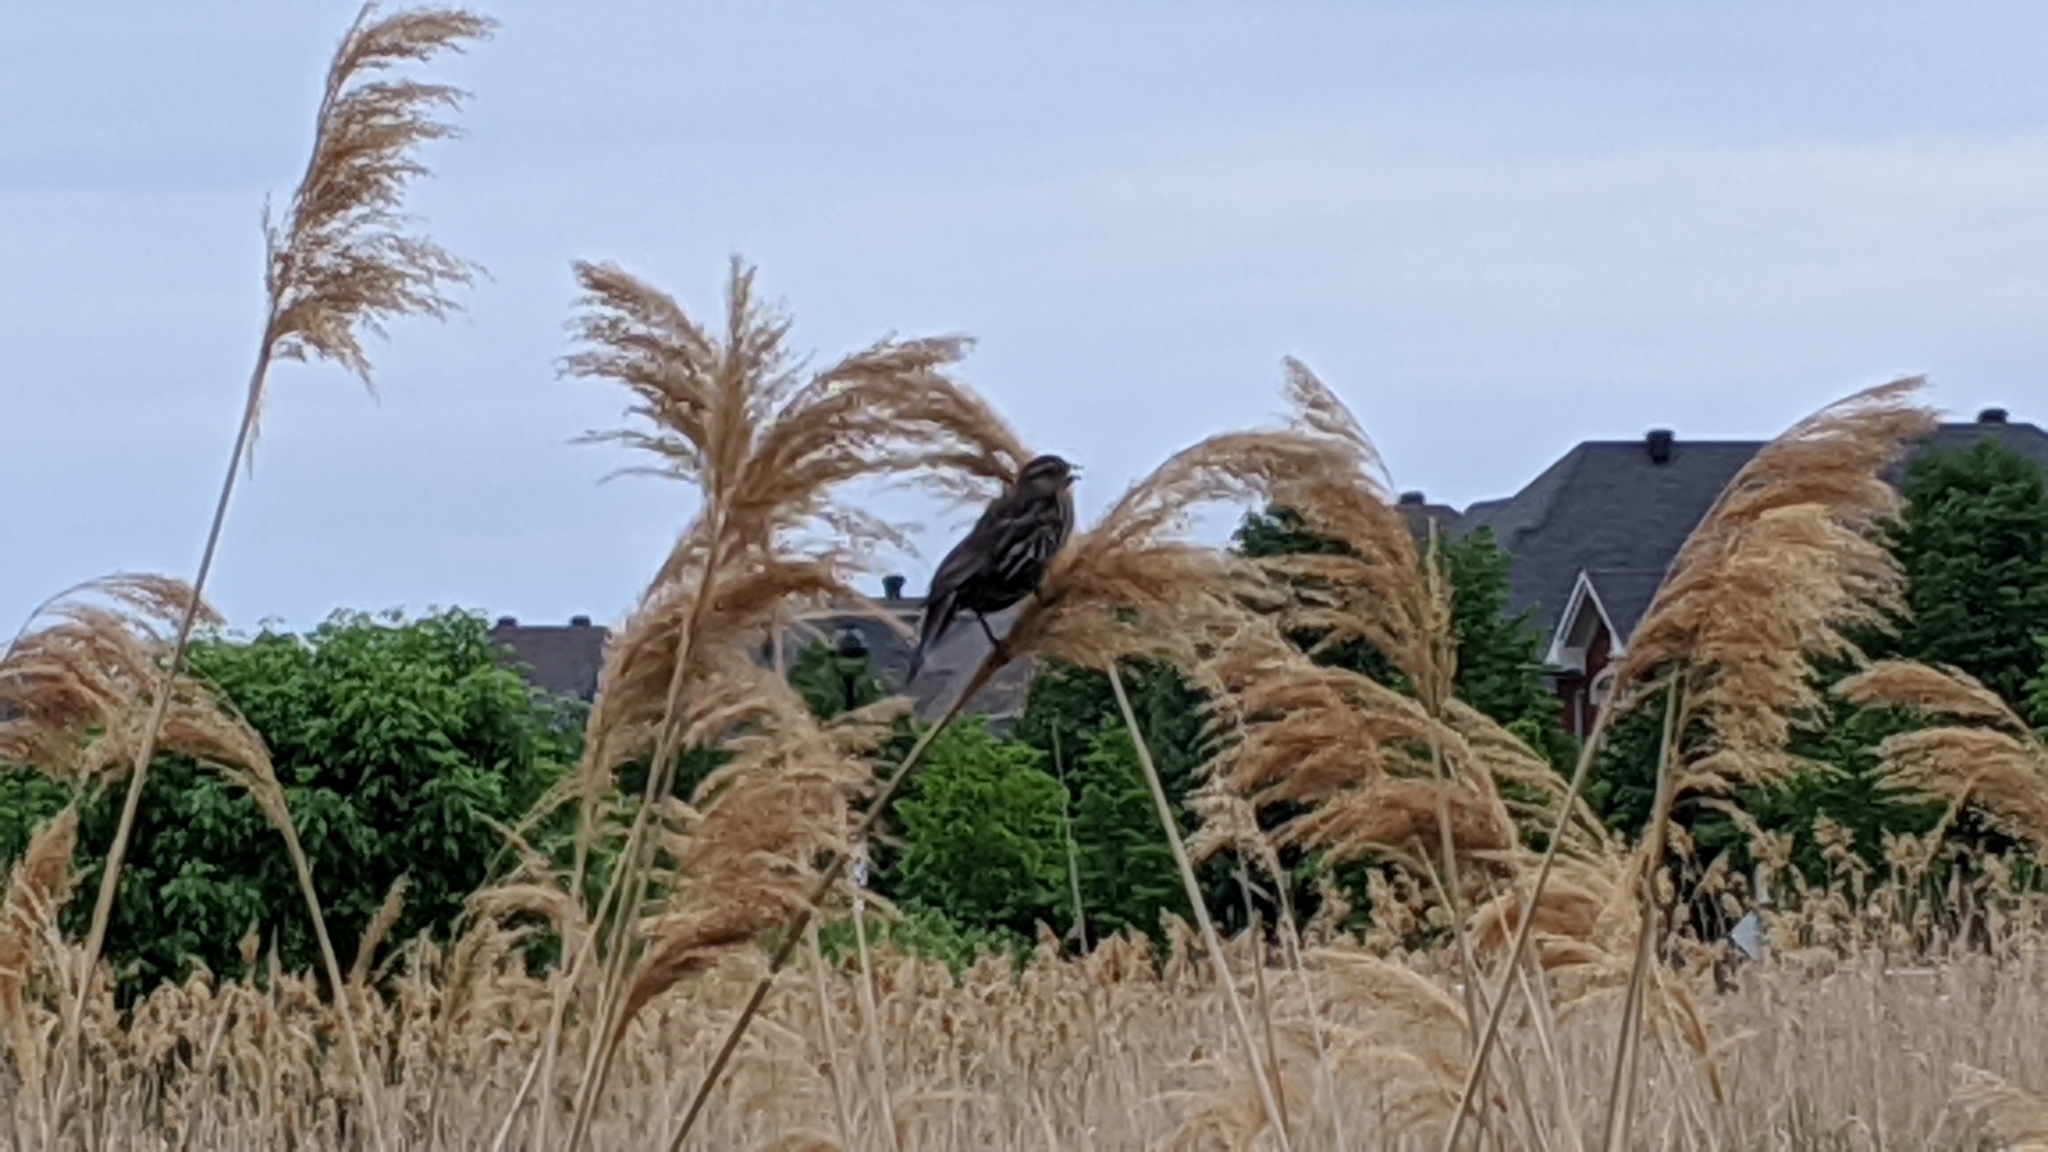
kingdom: Animalia
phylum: Chordata
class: Aves
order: Passeriformes
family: Icteridae
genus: Agelaius
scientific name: Agelaius phoeniceus
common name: Red-winged blackbird
